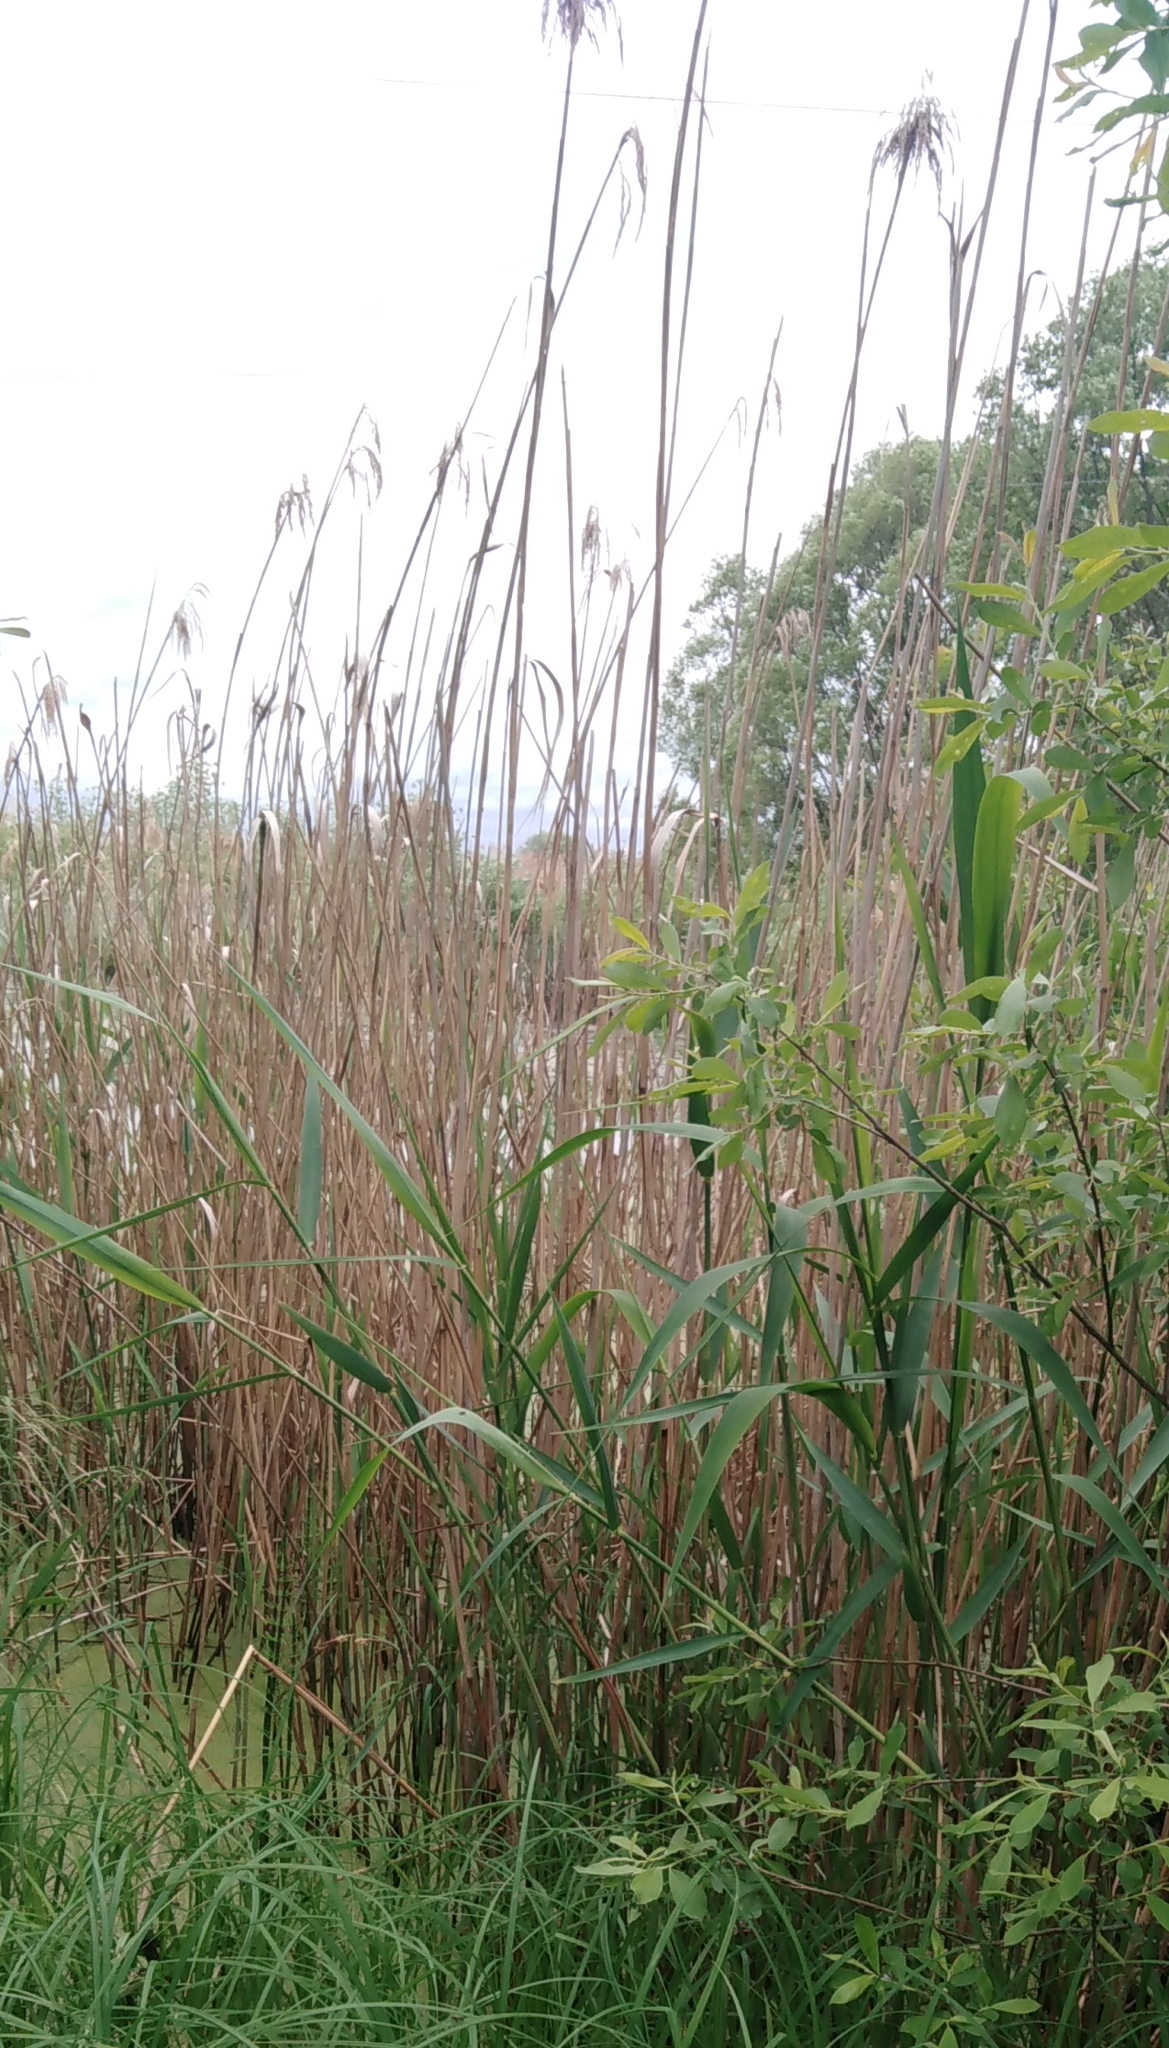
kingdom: Plantae
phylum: Tracheophyta
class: Liliopsida
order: Poales
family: Poaceae
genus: Phragmites
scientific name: Phragmites australis
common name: Common reed
